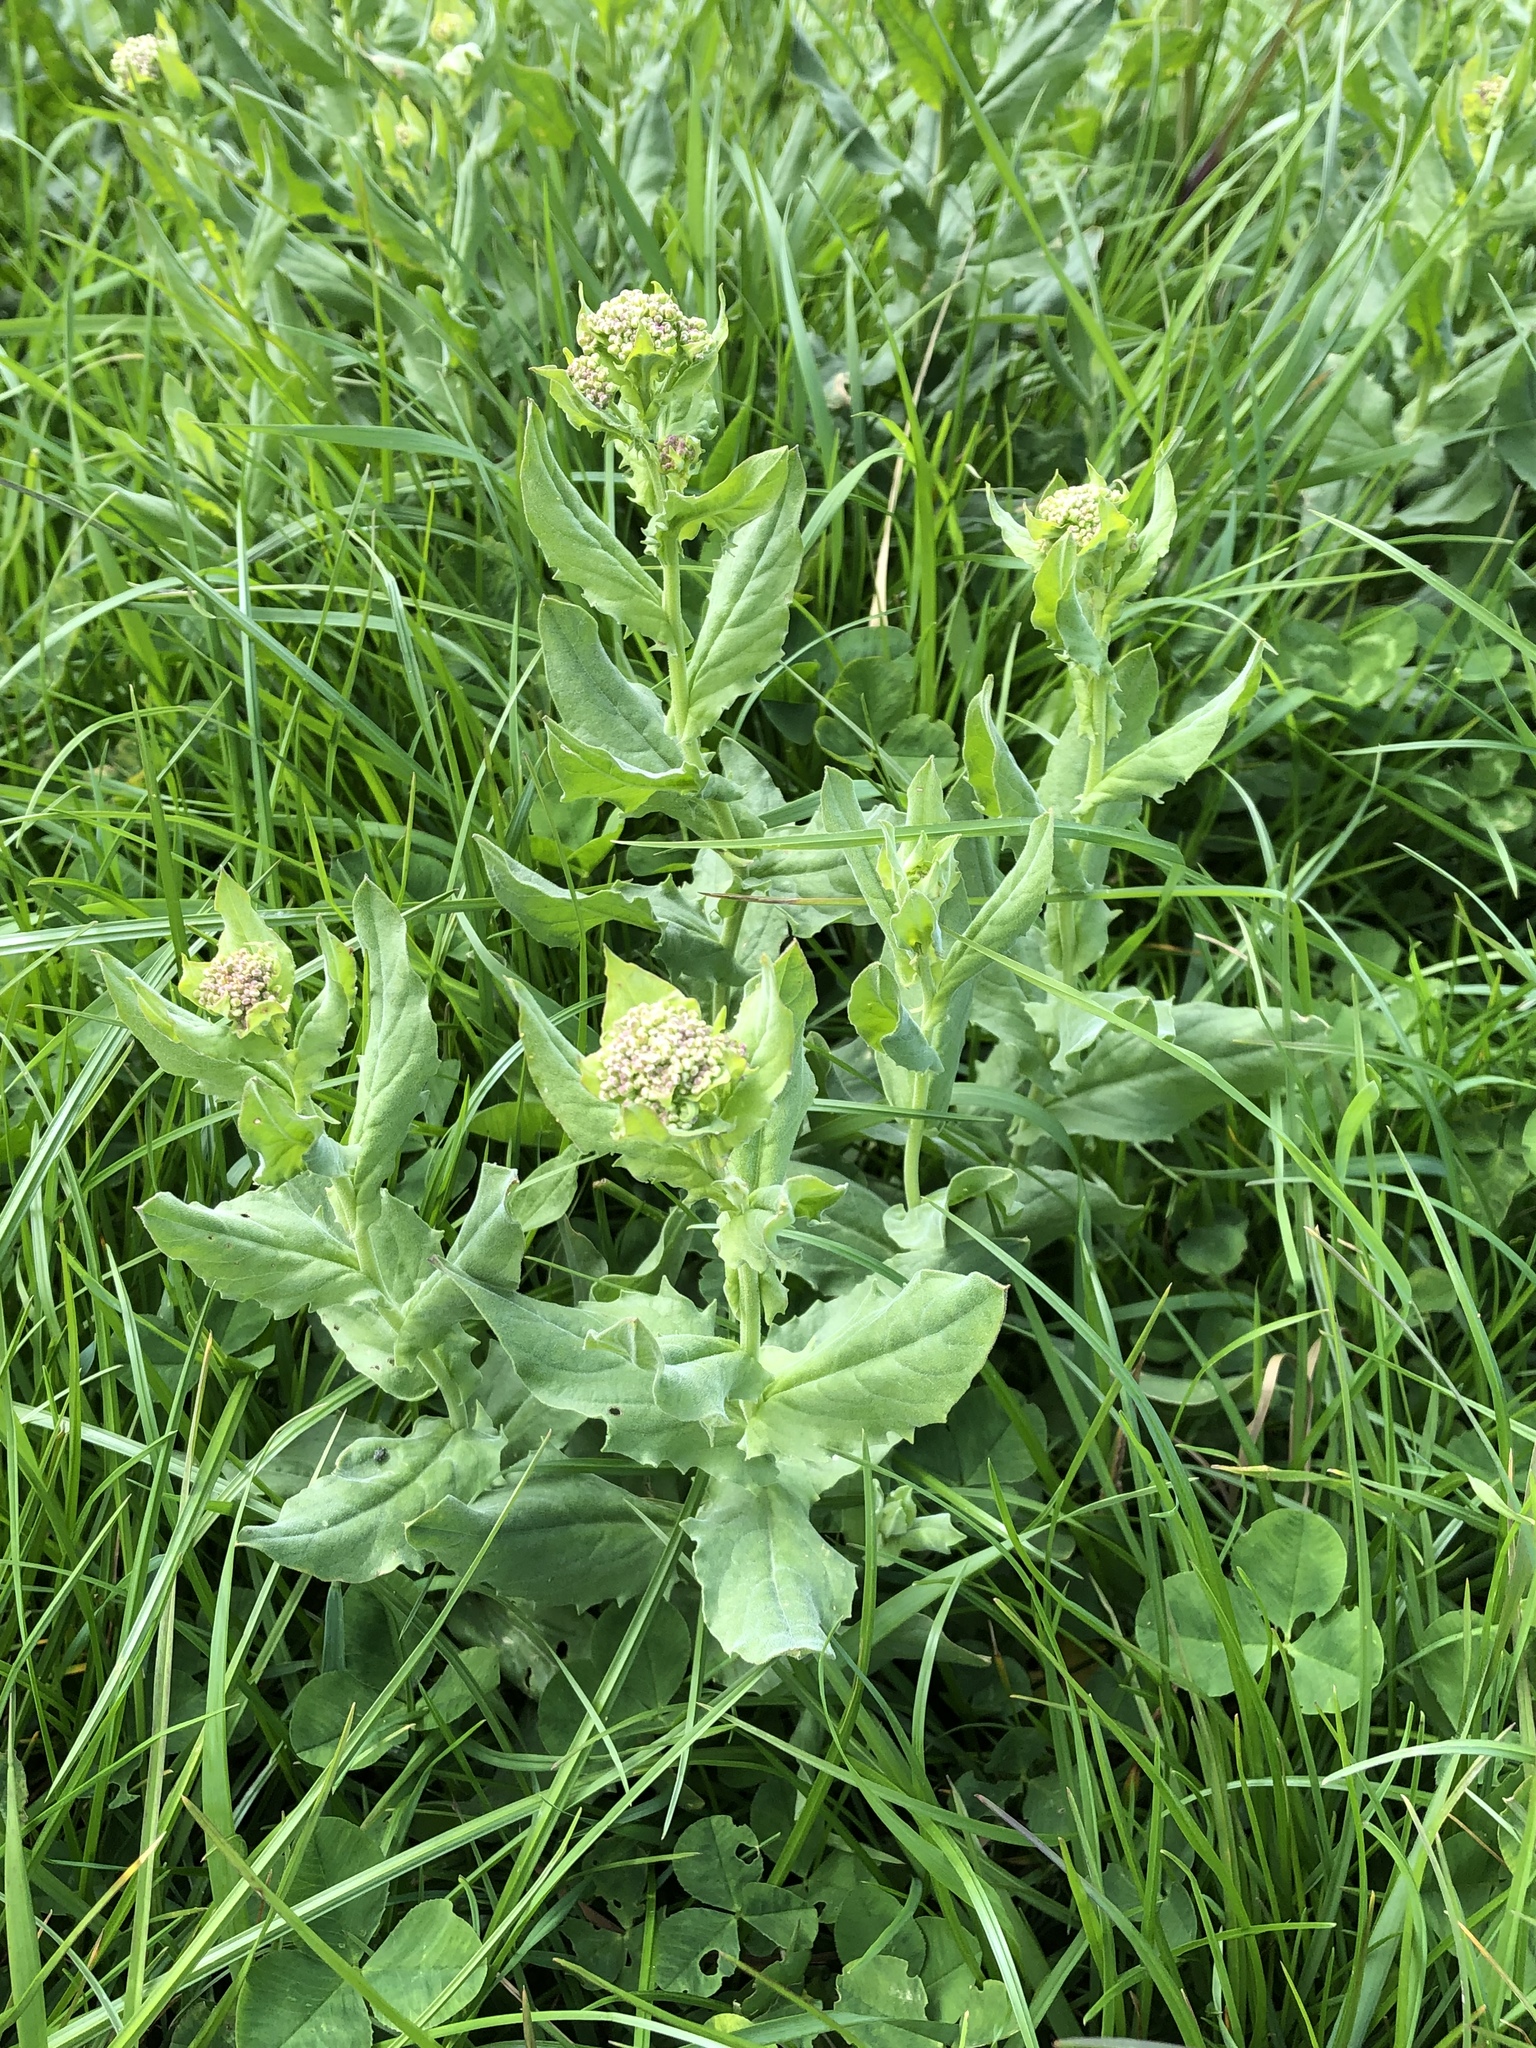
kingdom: Plantae
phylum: Tracheophyta
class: Magnoliopsida
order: Brassicales
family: Brassicaceae
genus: Lepidium
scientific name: Lepidium draba
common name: Hoary cress
